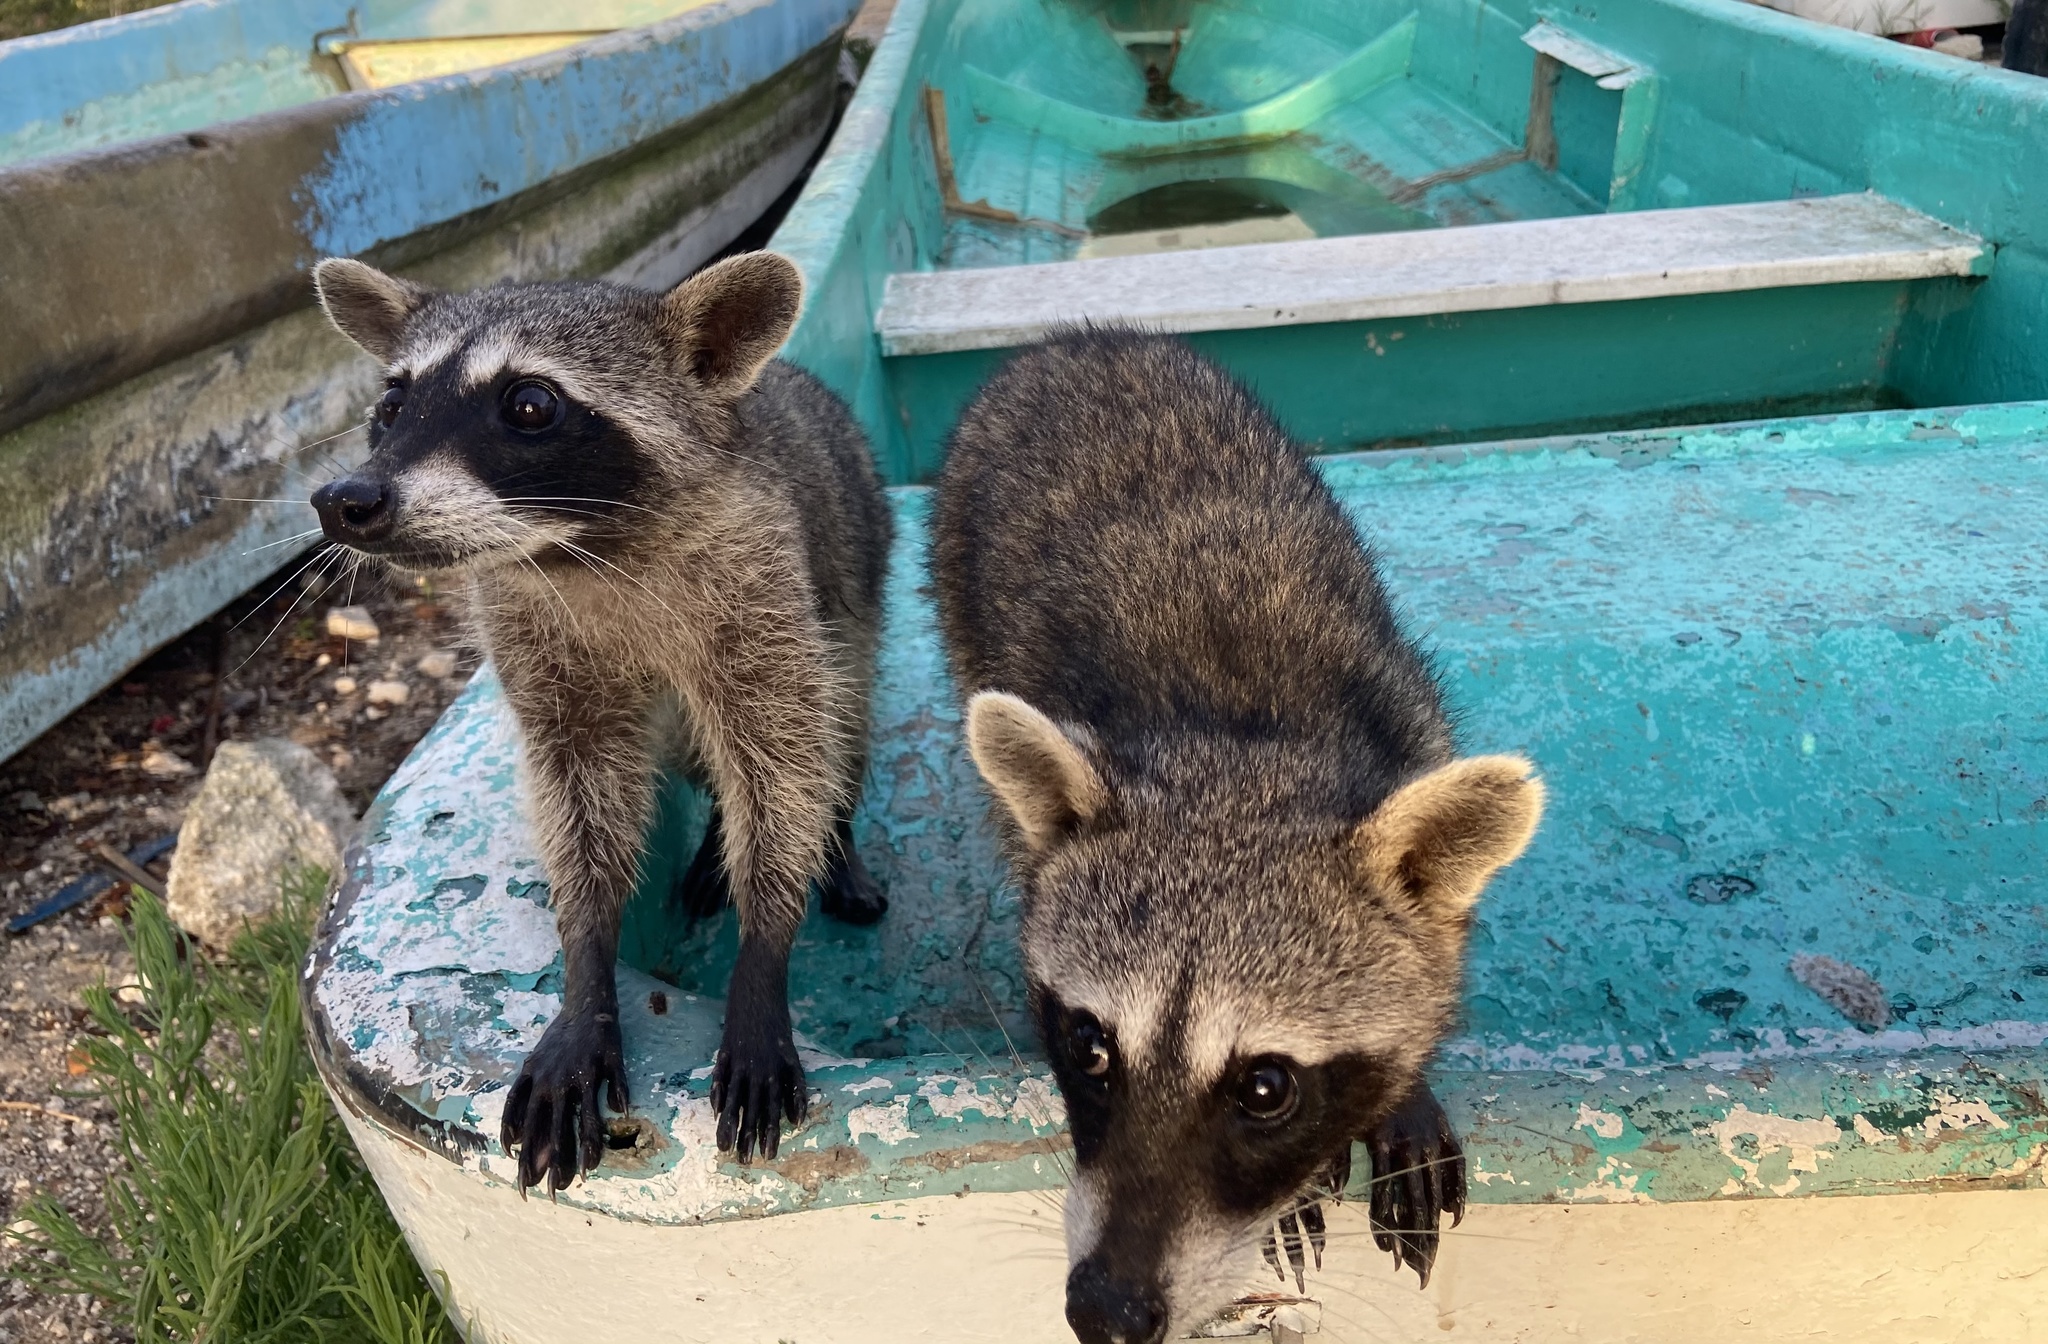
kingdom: Animalia
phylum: Chordata
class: Mammalia
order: Carnivora
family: Procyonidae
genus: Procyon
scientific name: Procyon pygmaeus
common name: Cozumel raccoon
